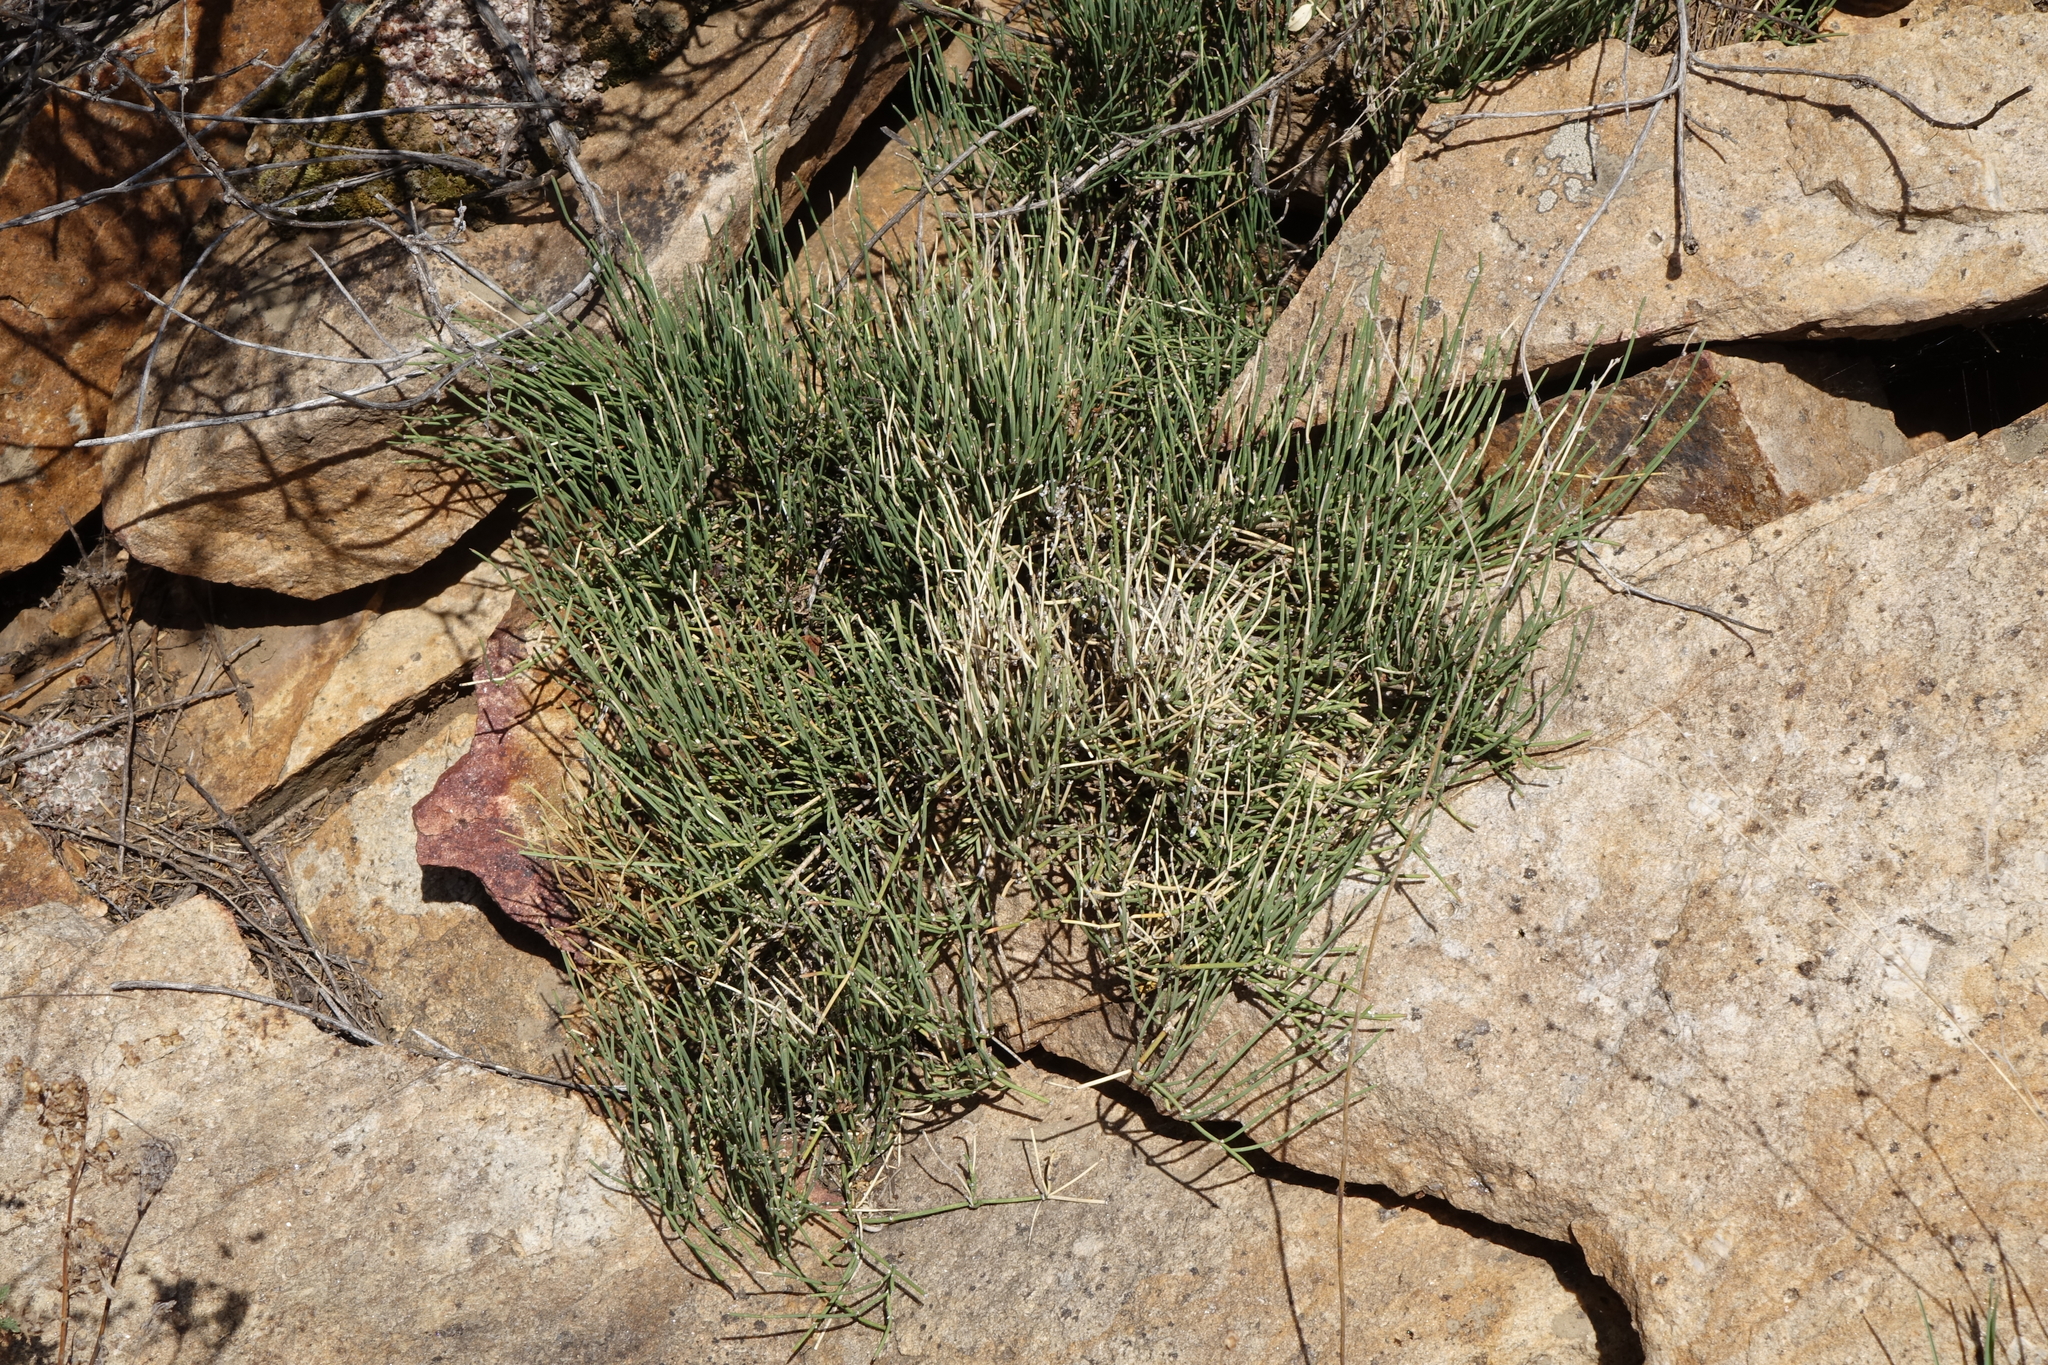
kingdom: Plantae
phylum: Tracheophyta
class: Gnetopsida
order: Ephedrales
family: Ephedraceae
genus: Ephedra
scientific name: Ephedra monosperma
